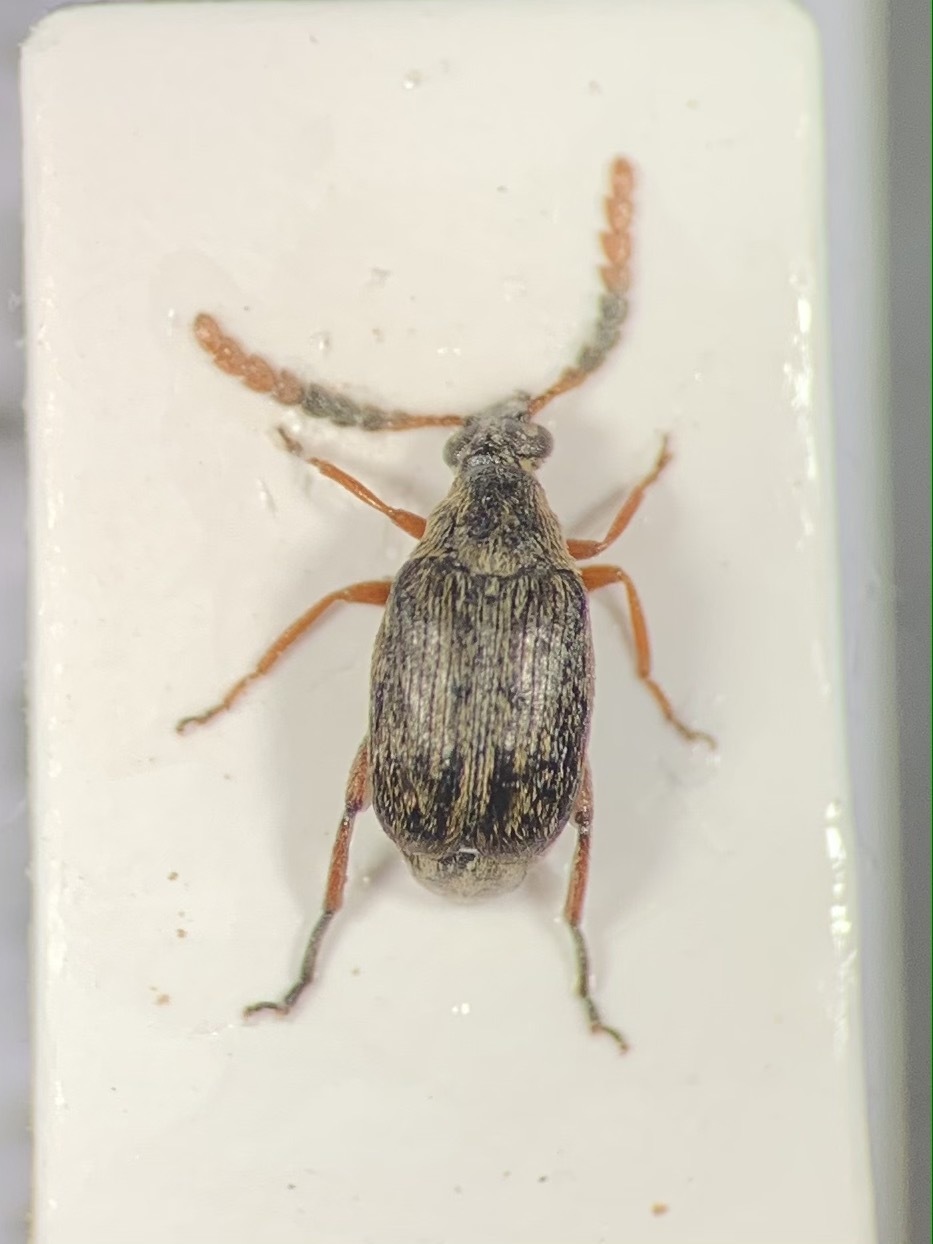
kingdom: Animalia
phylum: Arthropoda
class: Insecta
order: Coleoptera
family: Chrysomelidae
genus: Bruchidius
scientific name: Bruchidius annulicornis
